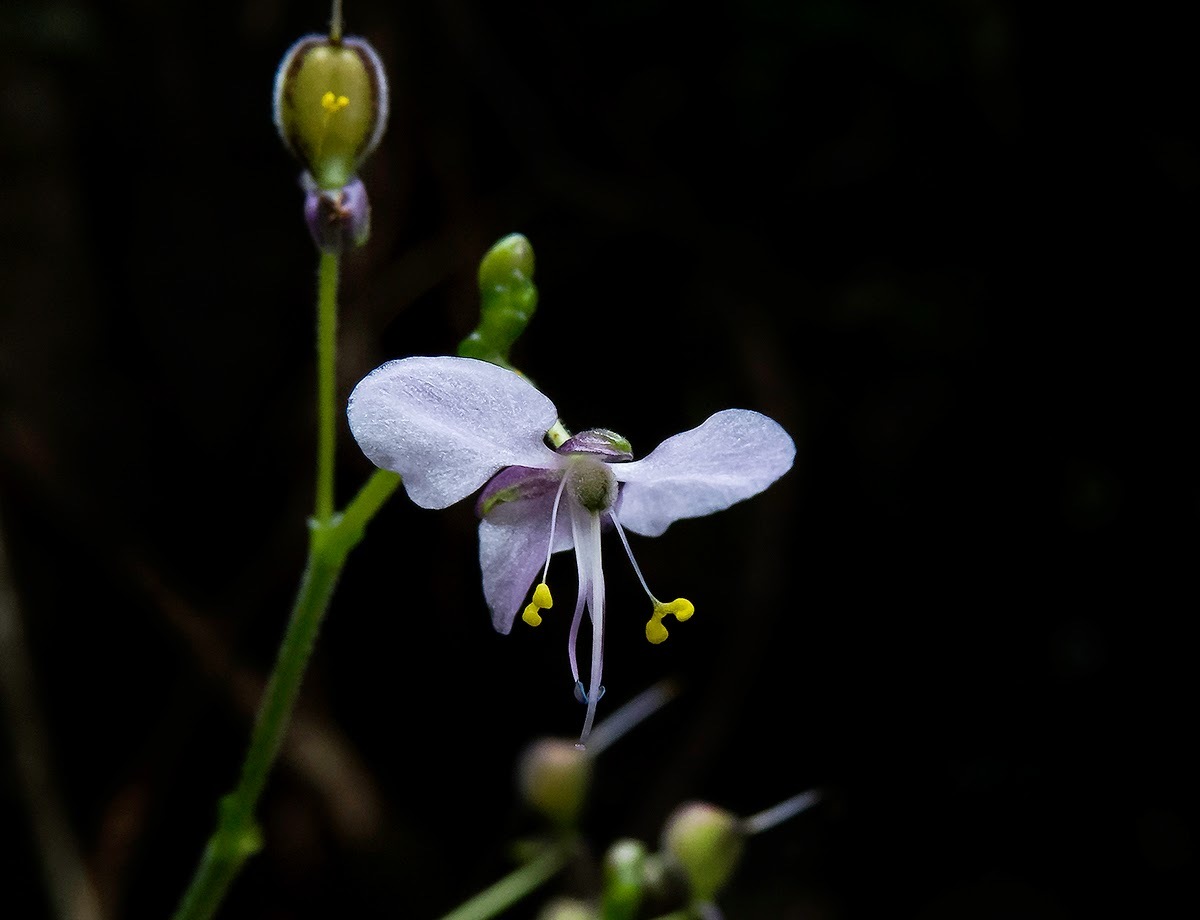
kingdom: Plantae
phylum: Tracheophyta
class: Liliopsida
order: Commelinales
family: Commelinaceae
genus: Rhopalephora
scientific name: Rhopalephora scaberrima
